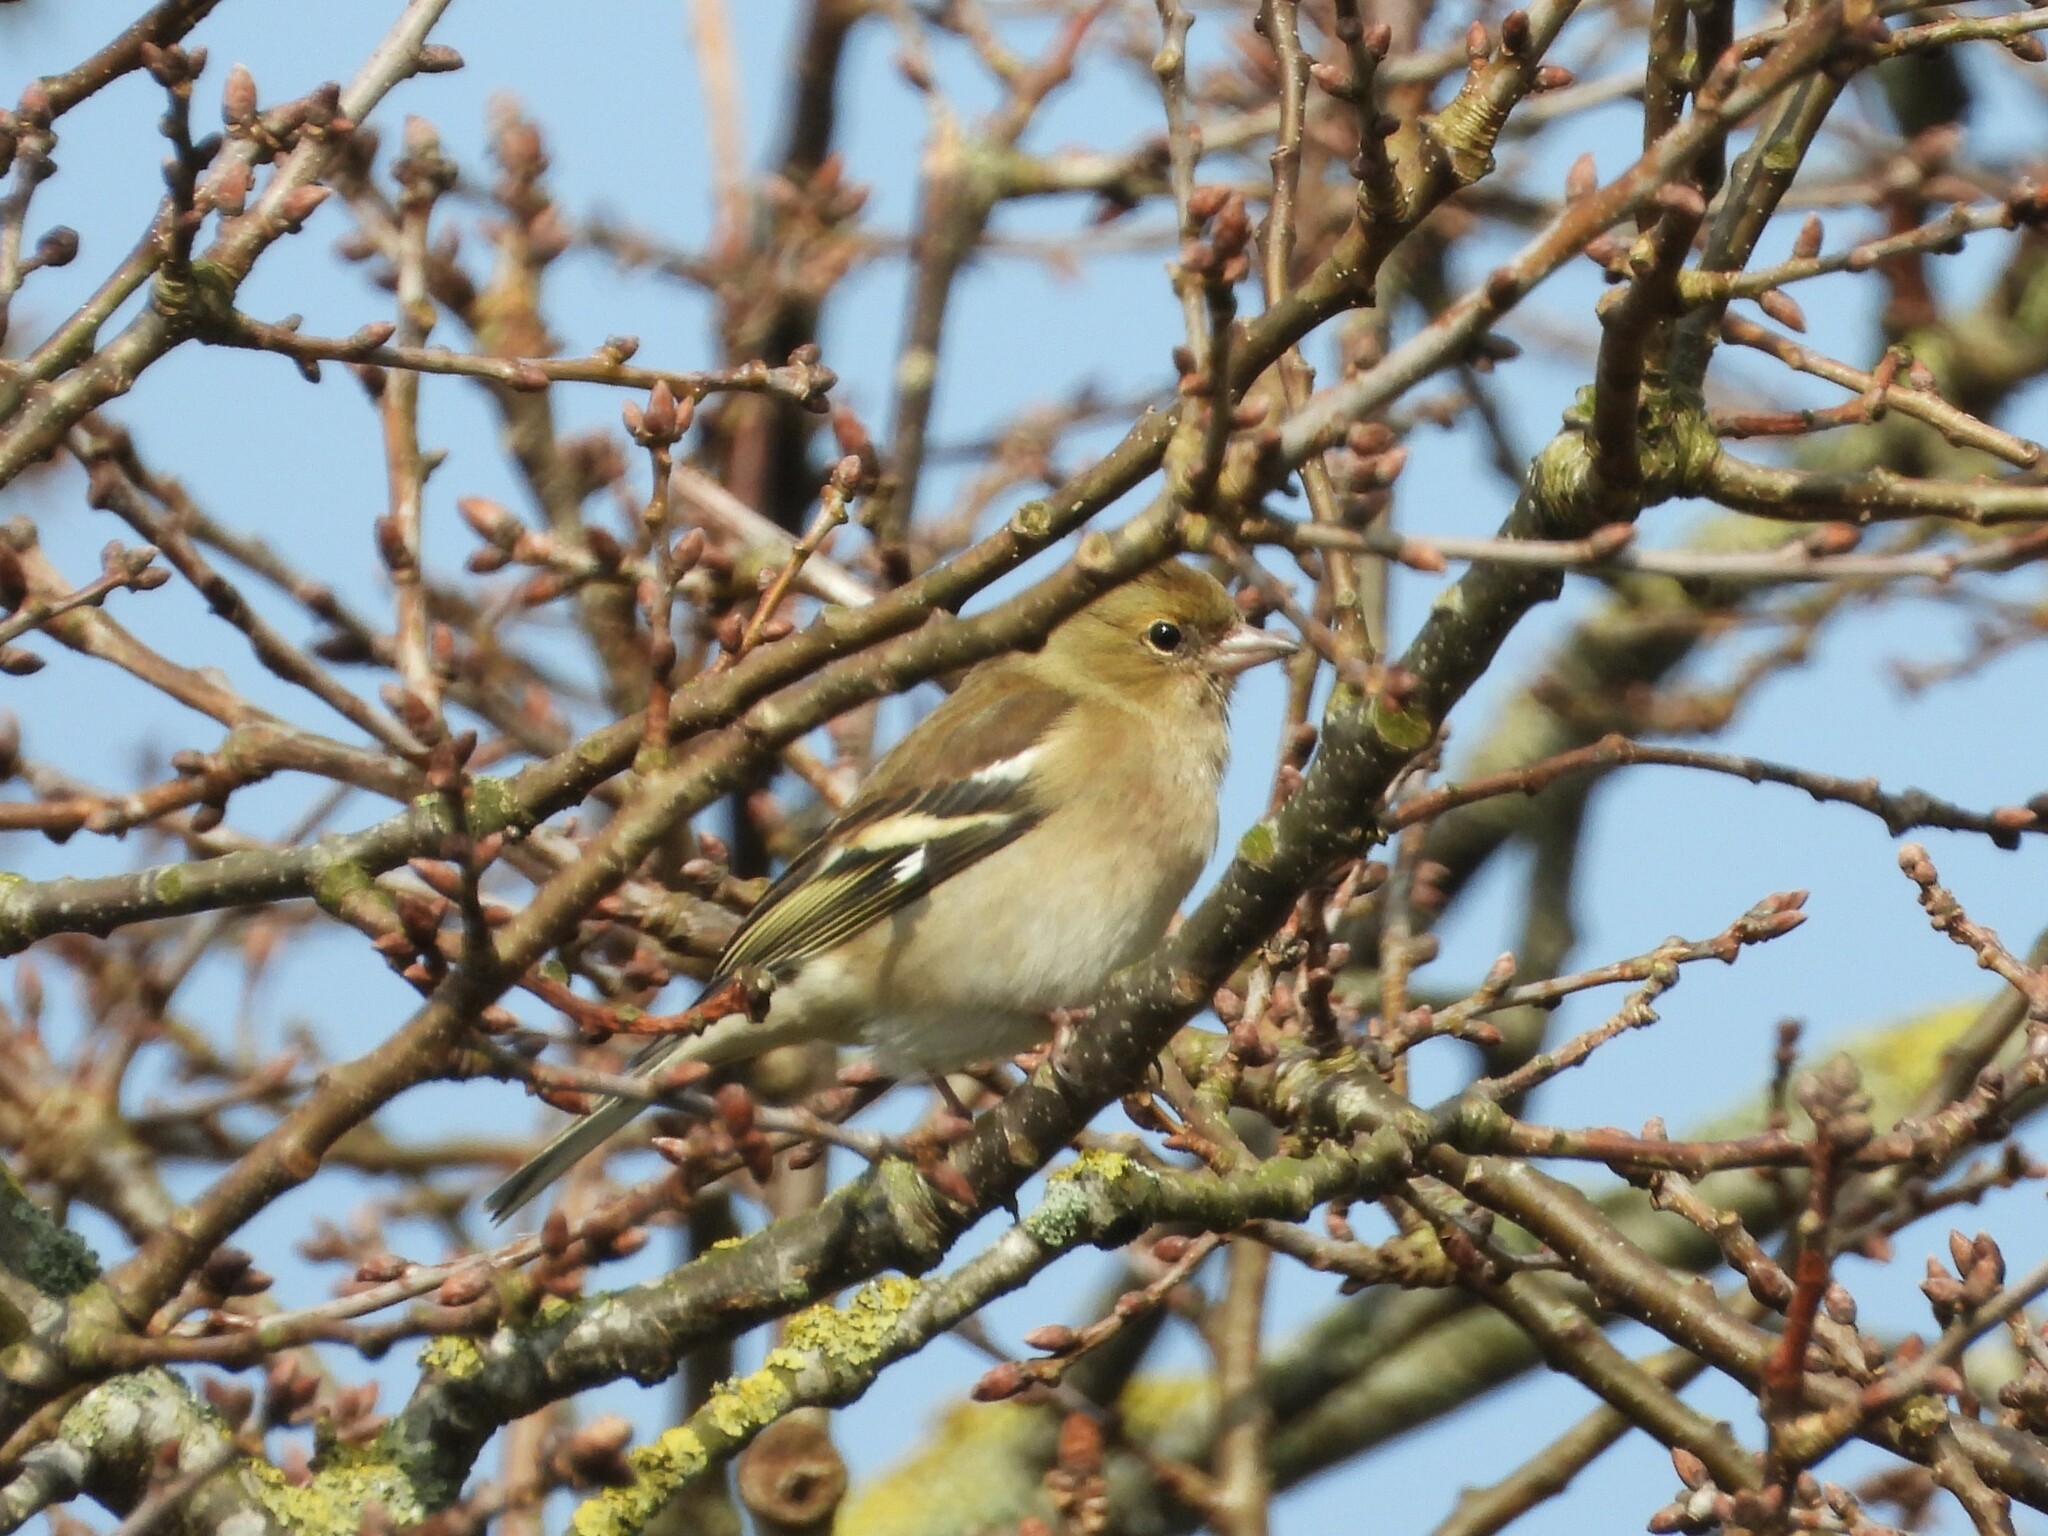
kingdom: Animalia
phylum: Chordata
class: Aves
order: Passeriformes
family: Fringillidae
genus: Fringilla
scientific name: Fringilla coelebs
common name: Common chaffinch
